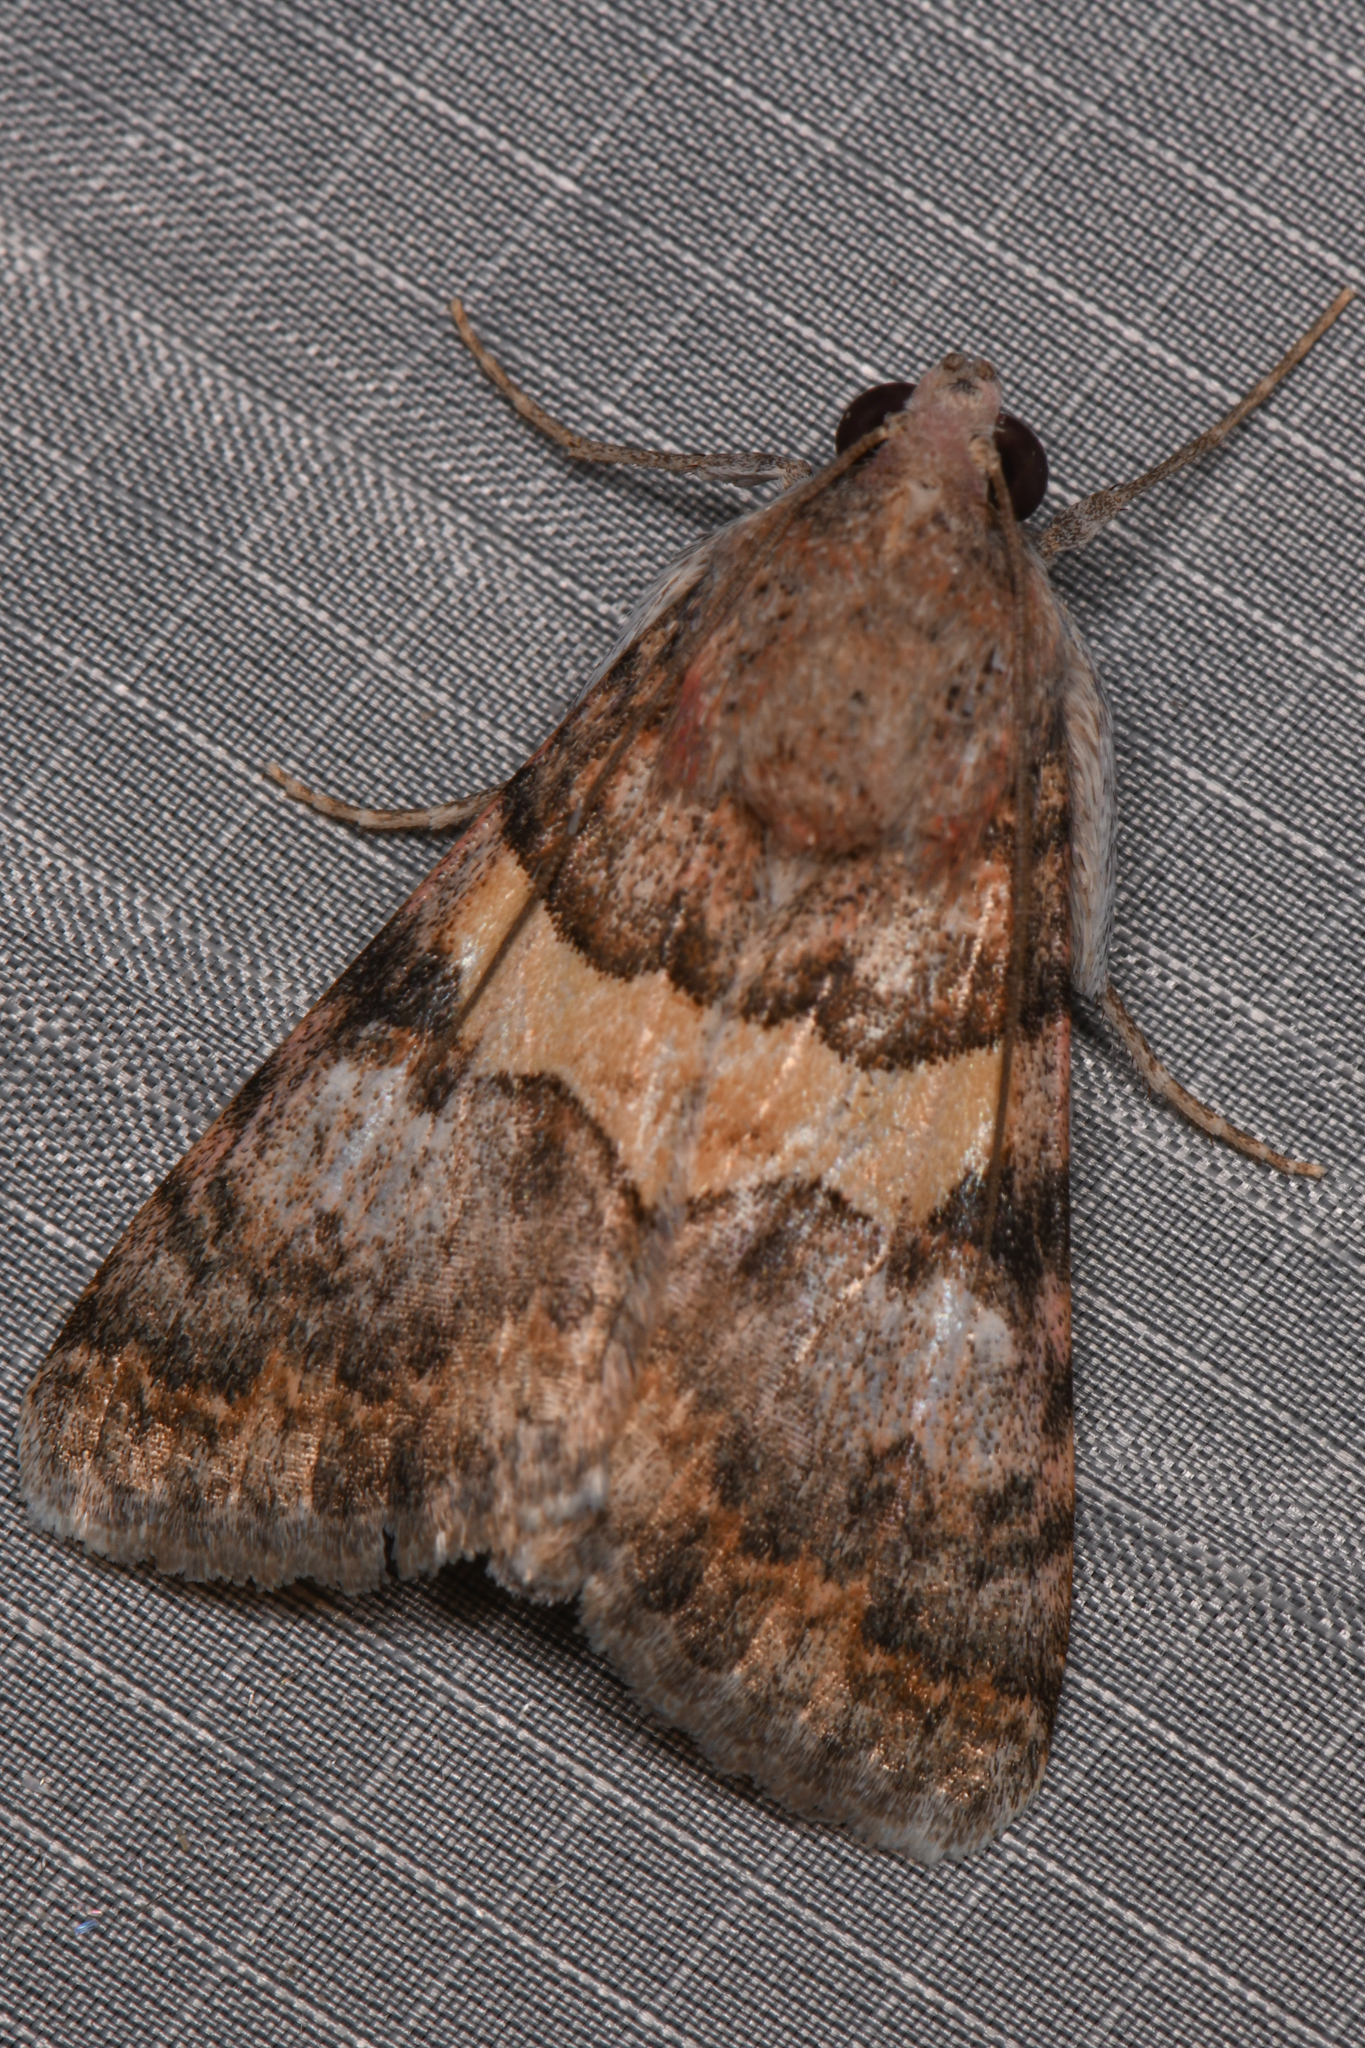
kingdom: Animalia
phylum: Arthropoda
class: Insecta
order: Lepidoptera
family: Erebidae
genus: Melipotis
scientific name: Melipotis jucunda
